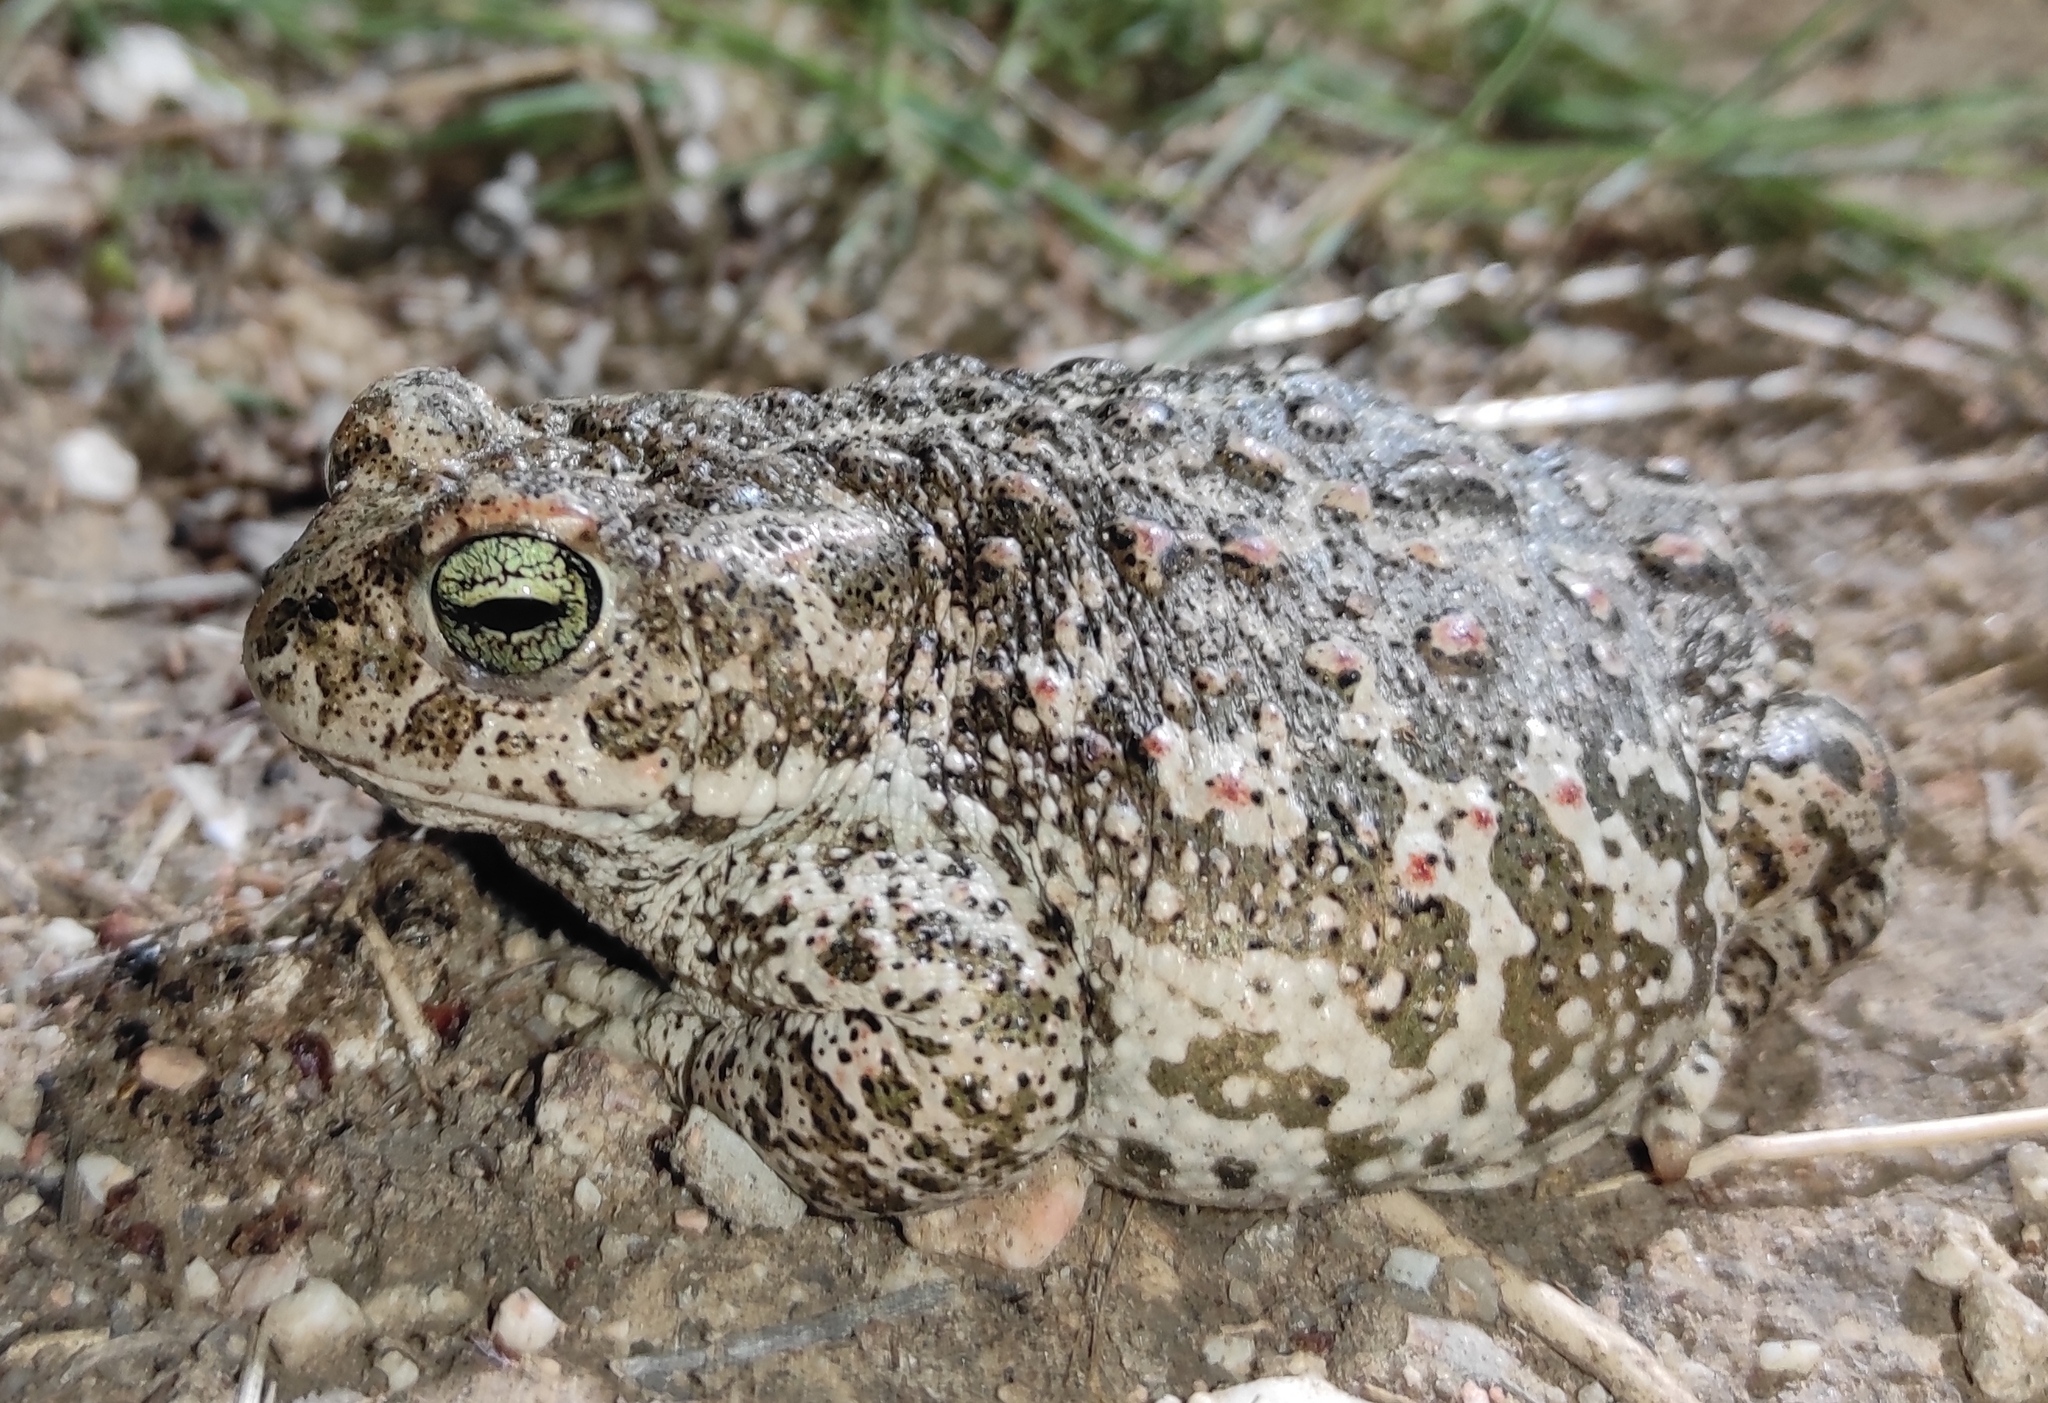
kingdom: Animalia
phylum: Chordata
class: Amphibia
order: Anura
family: Bufonidae
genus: Epidalea
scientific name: Epidalea calamita
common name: Natterjack toad
